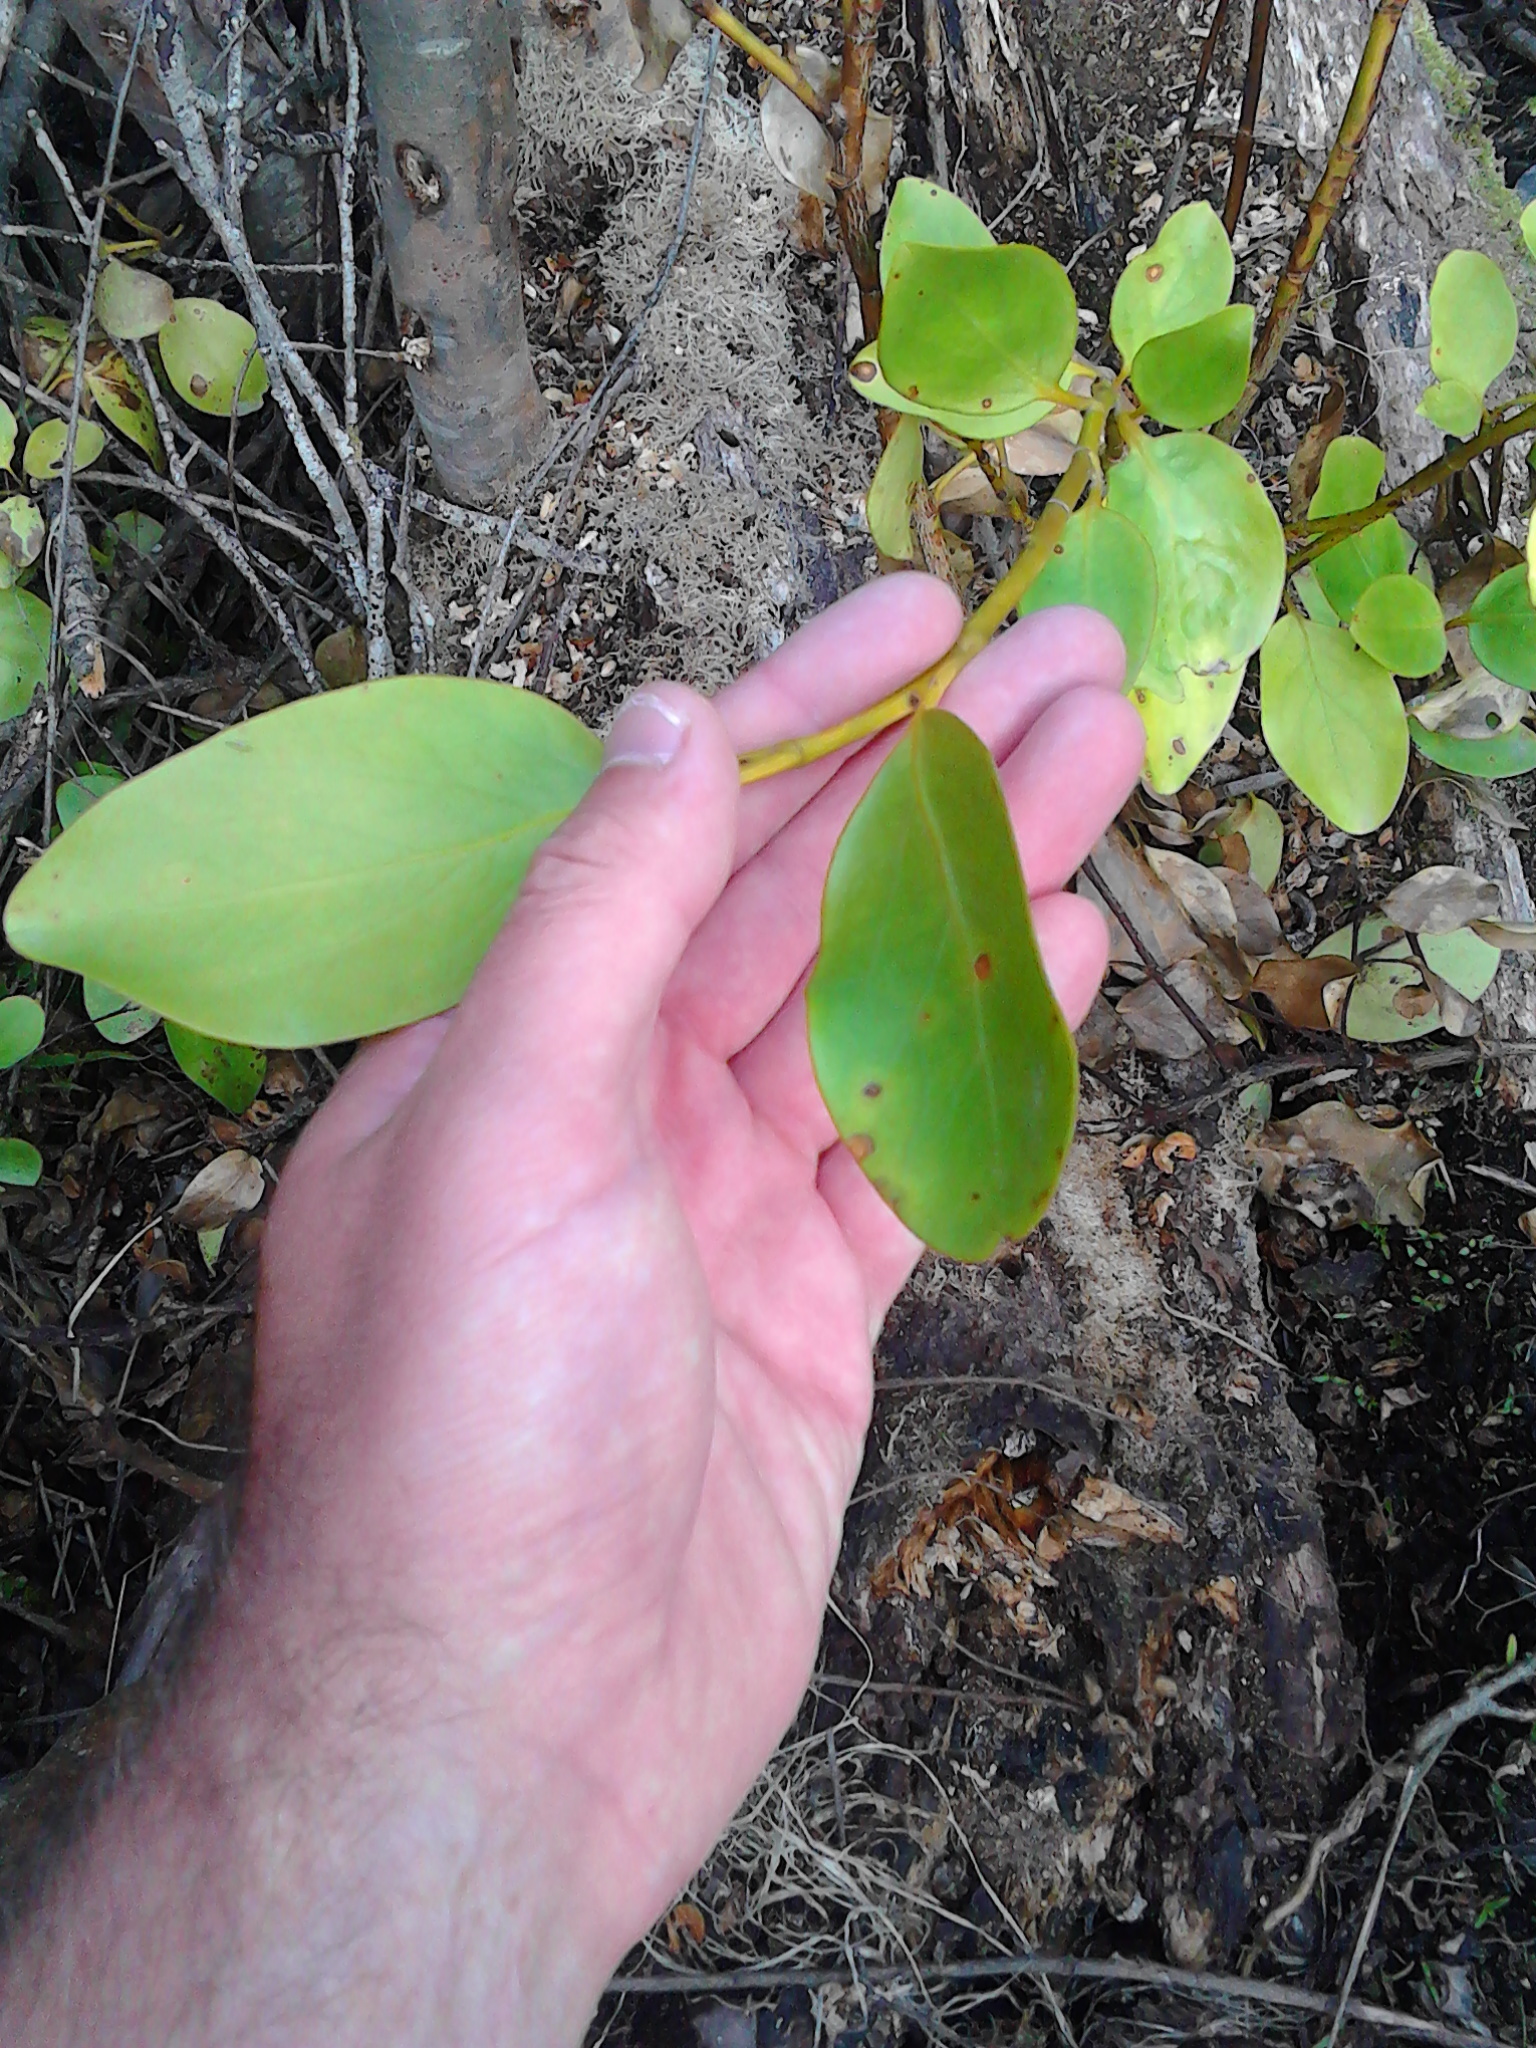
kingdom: Plantae
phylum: Tracheophyta
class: Magnoliopsida
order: Apiales
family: Griseliniaceae
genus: Griselinia
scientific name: Griselinia littoralis
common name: New zealand broadleaf
